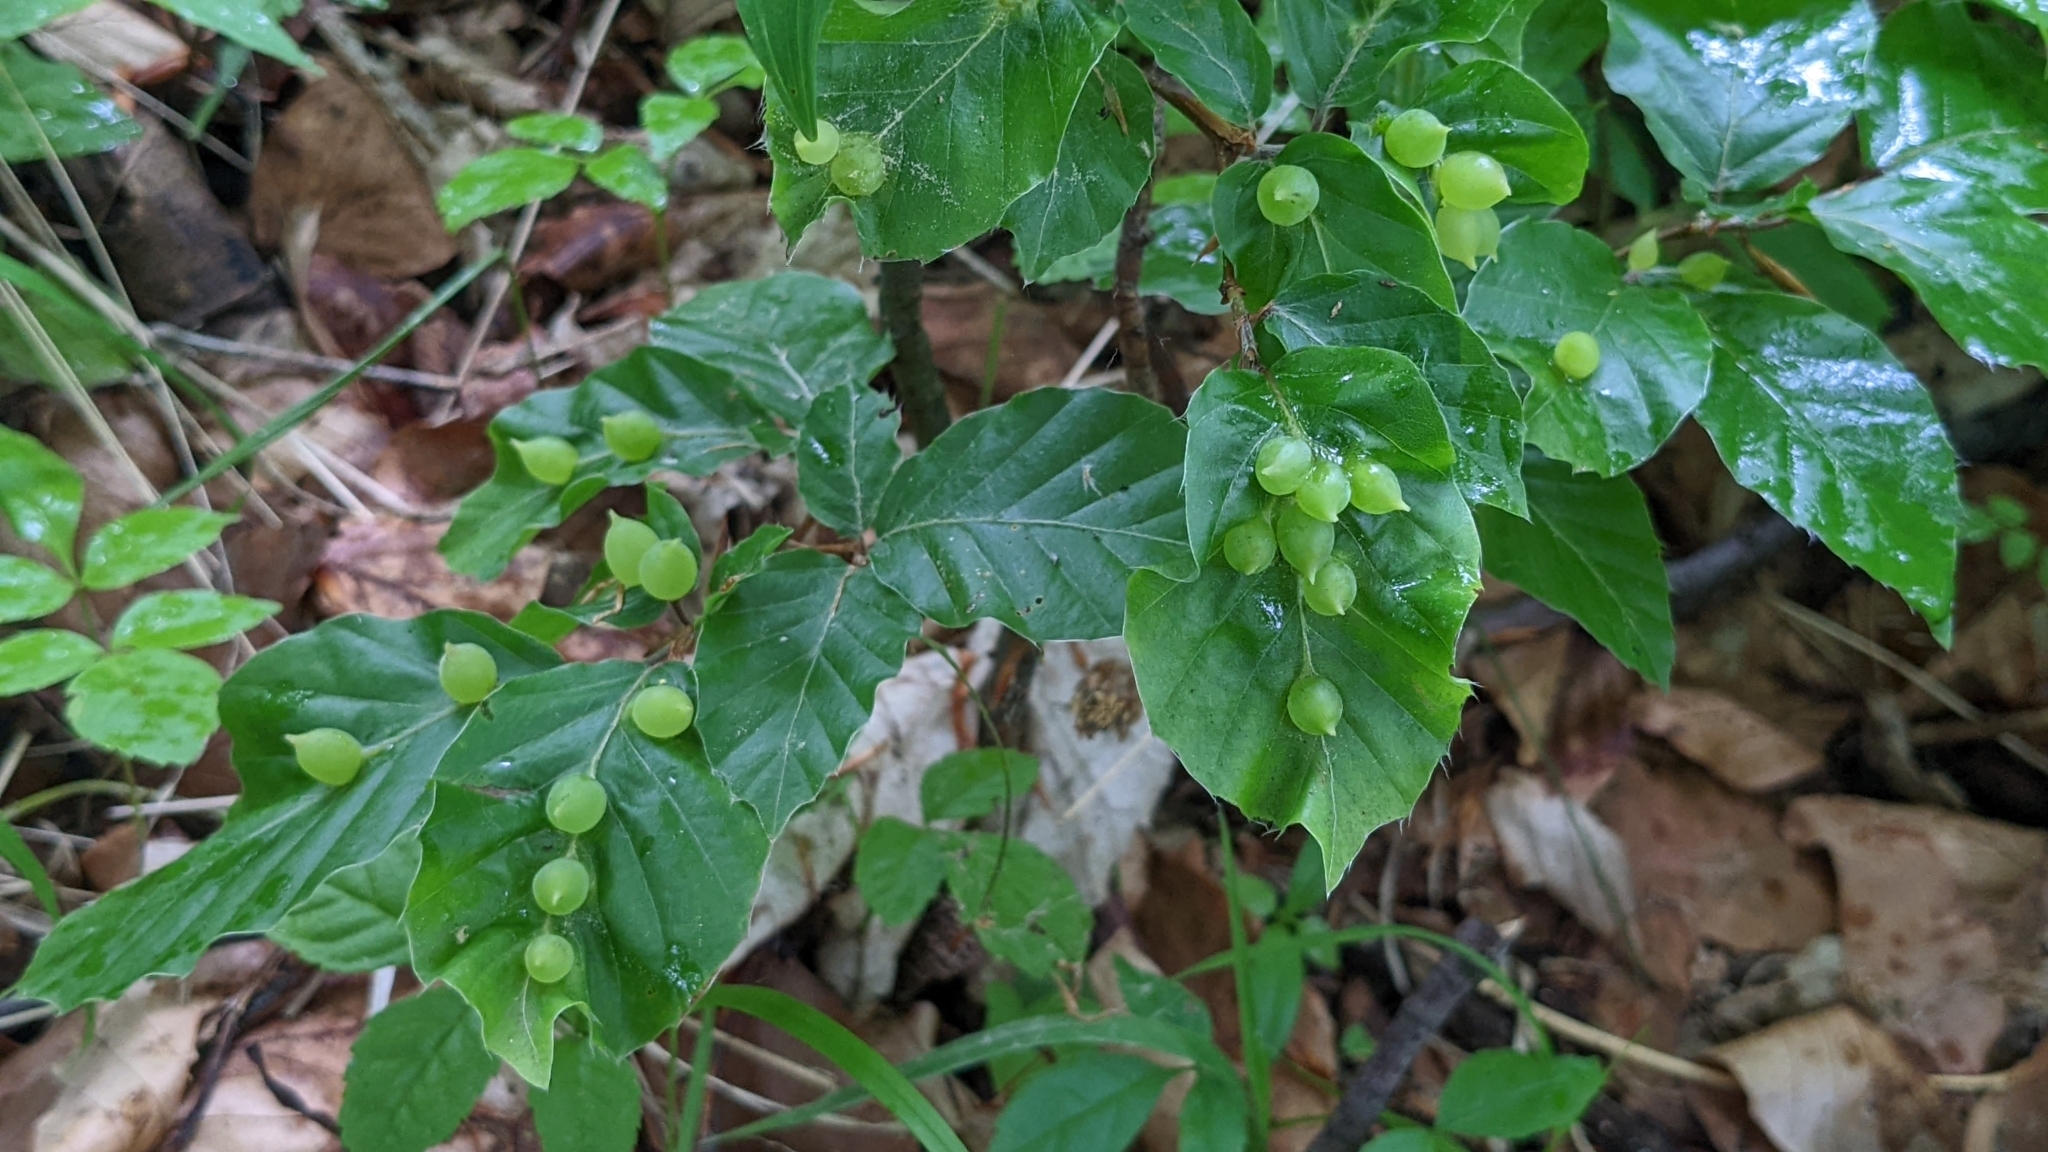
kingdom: Animalia
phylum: Arthropoda
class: Insecta
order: Diptera
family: Cecidomyiidae
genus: Mikiola
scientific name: Mikiola fagi
